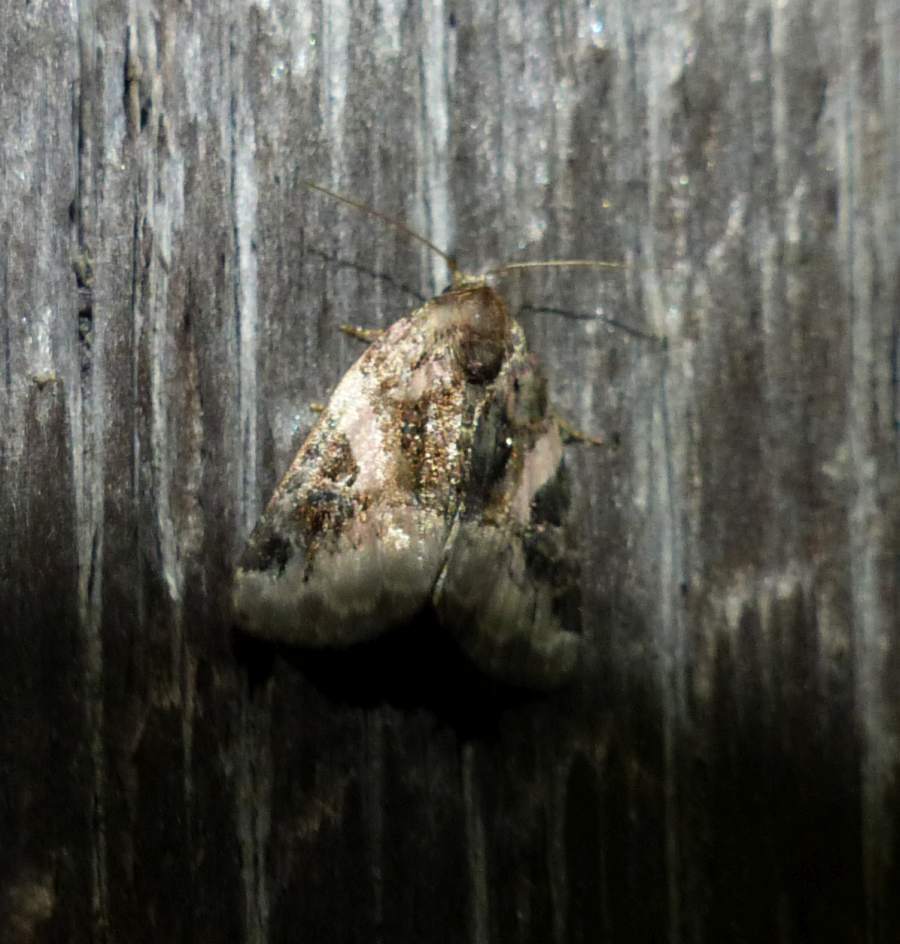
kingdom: Animalia
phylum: Arthropoda
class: Insecta
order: Lepidoptera
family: Noctuidae
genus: Pseudeustrotia
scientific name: Pseudeustrotia carneola
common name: Pink-barred lithacodia moth
